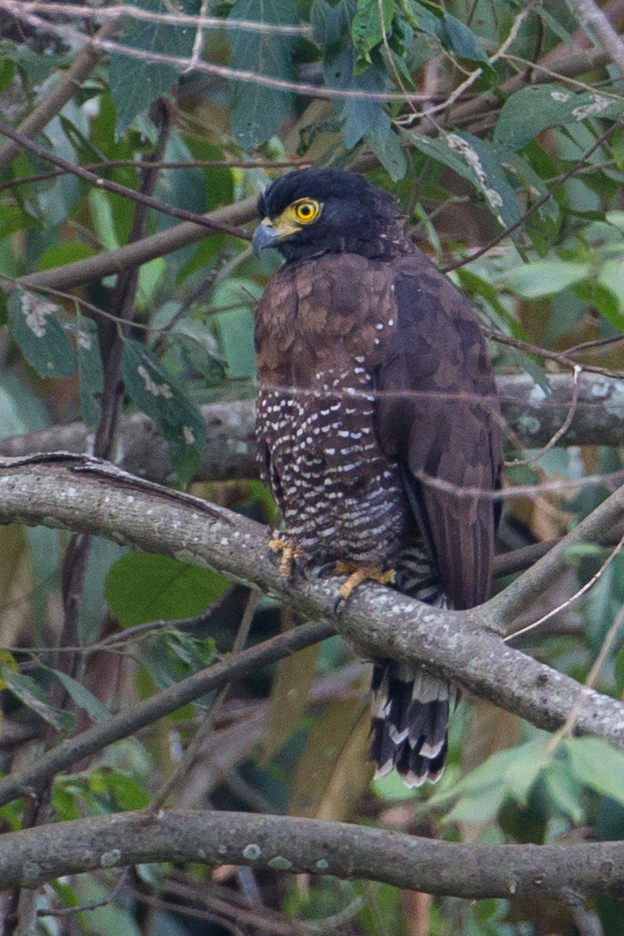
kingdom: Animalia
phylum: Chordata
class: Aves
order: Accipitriformes
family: Accipitridae
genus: Spilornis
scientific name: Spilornis rufipectus
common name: Sulawesi serpent eagle
